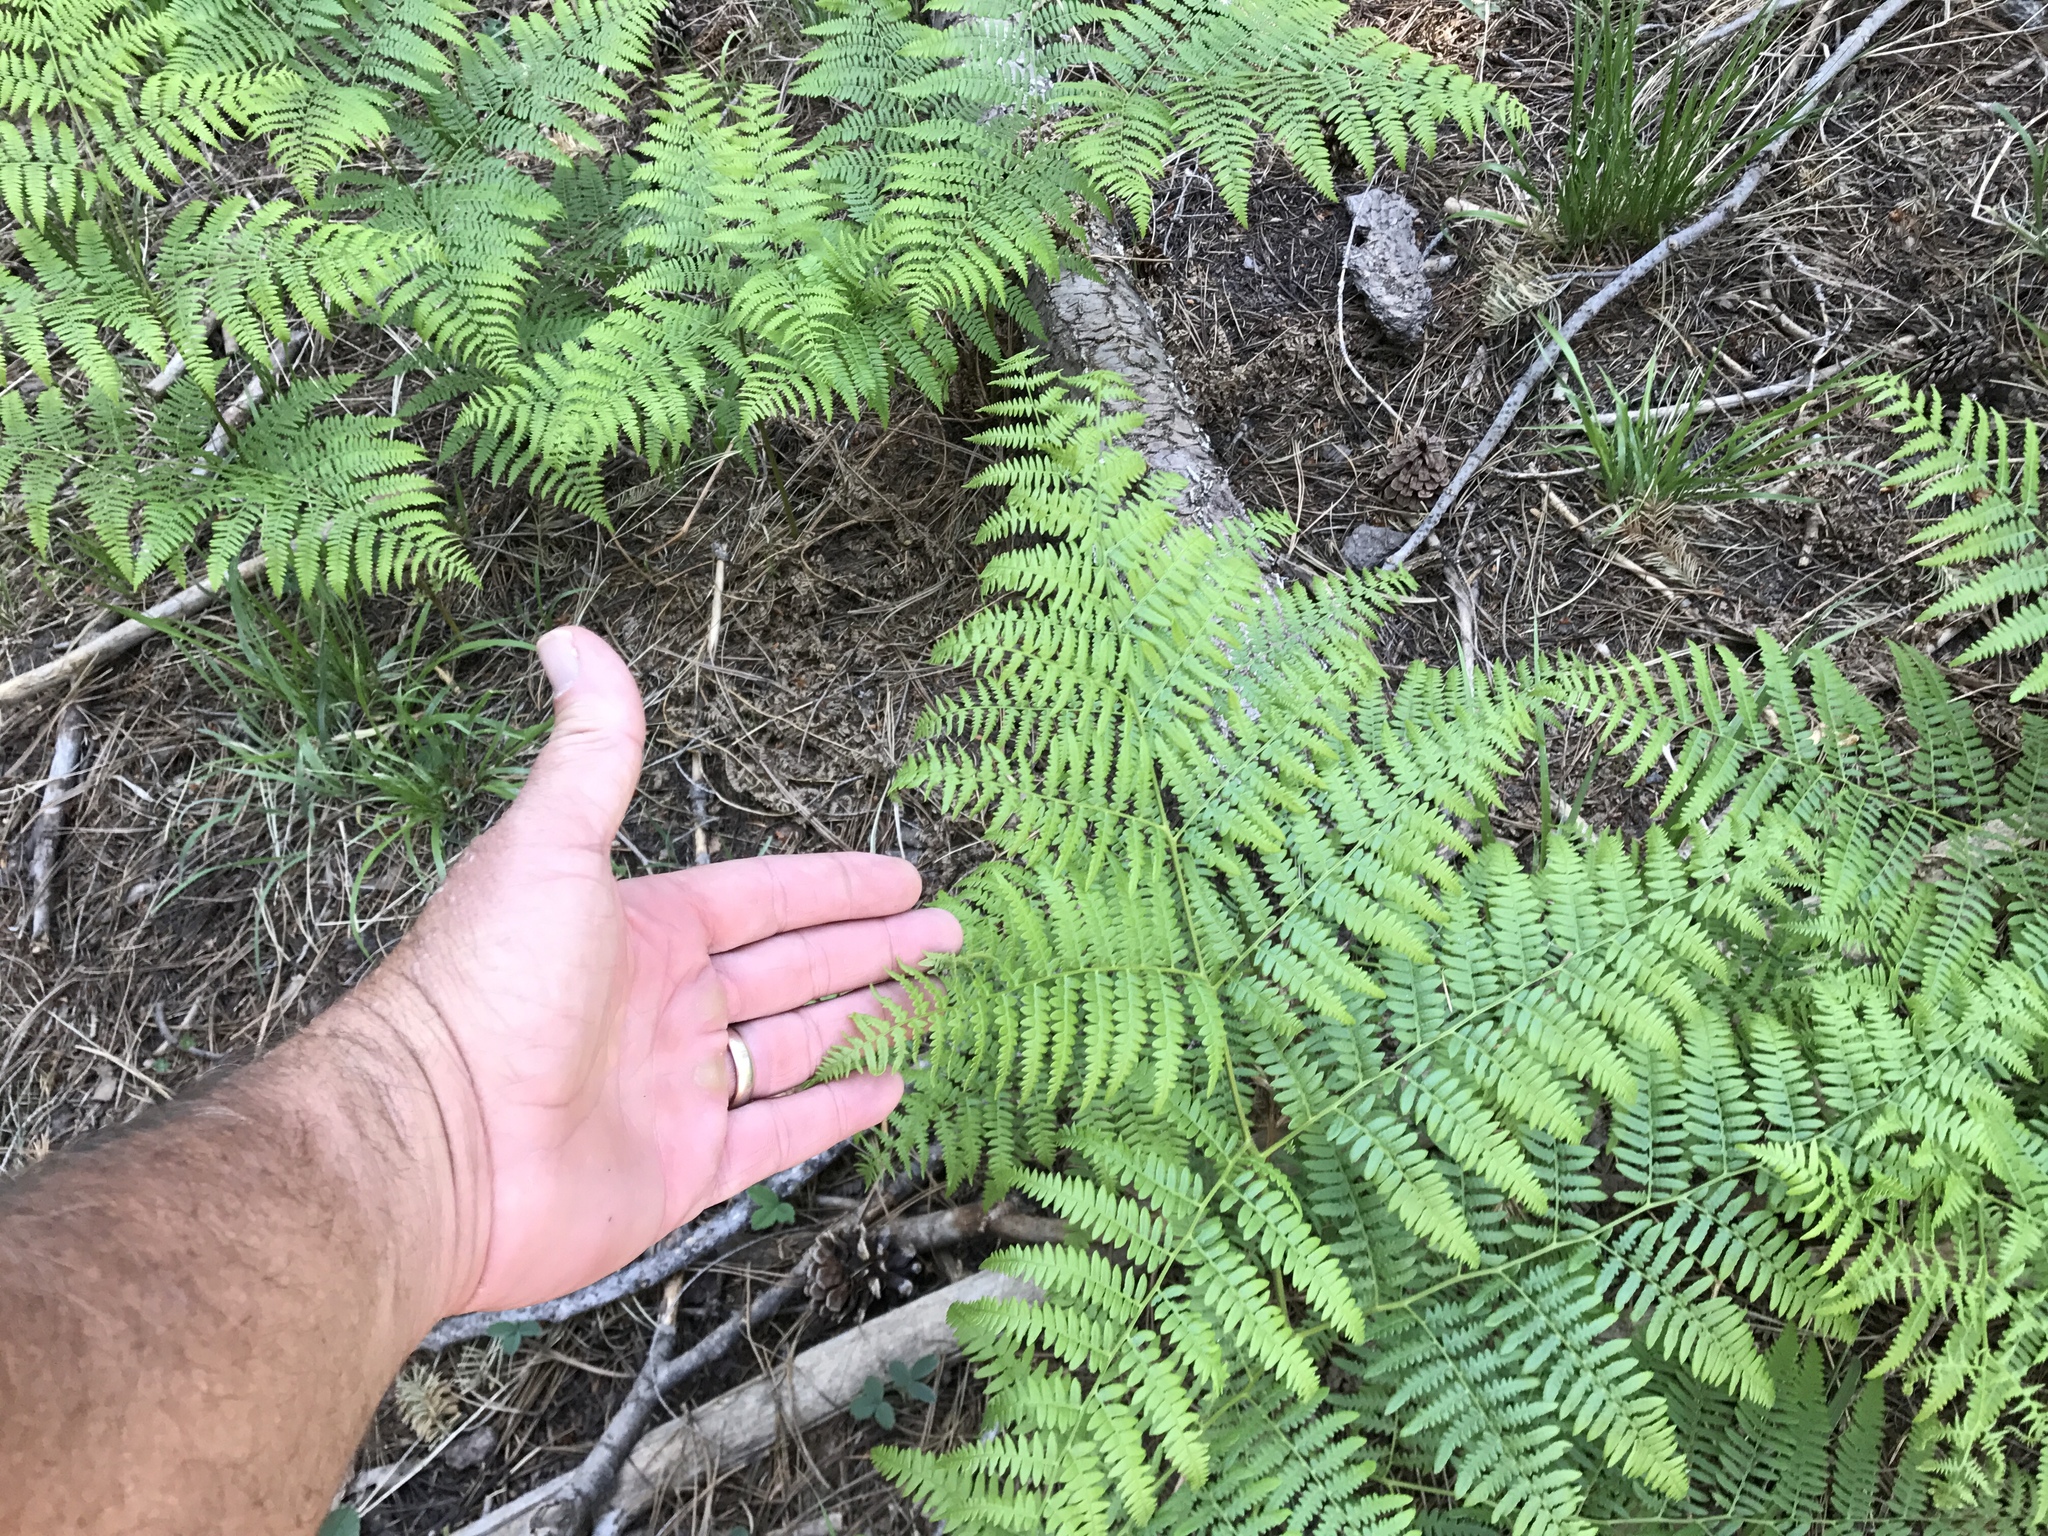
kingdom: Plantae
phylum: Tracheophyta
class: Polypodiopsida
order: Polypodiales
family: Dennstaedtiaceae
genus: Pteridium
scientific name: Pteridium aquilinum
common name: Bracken
